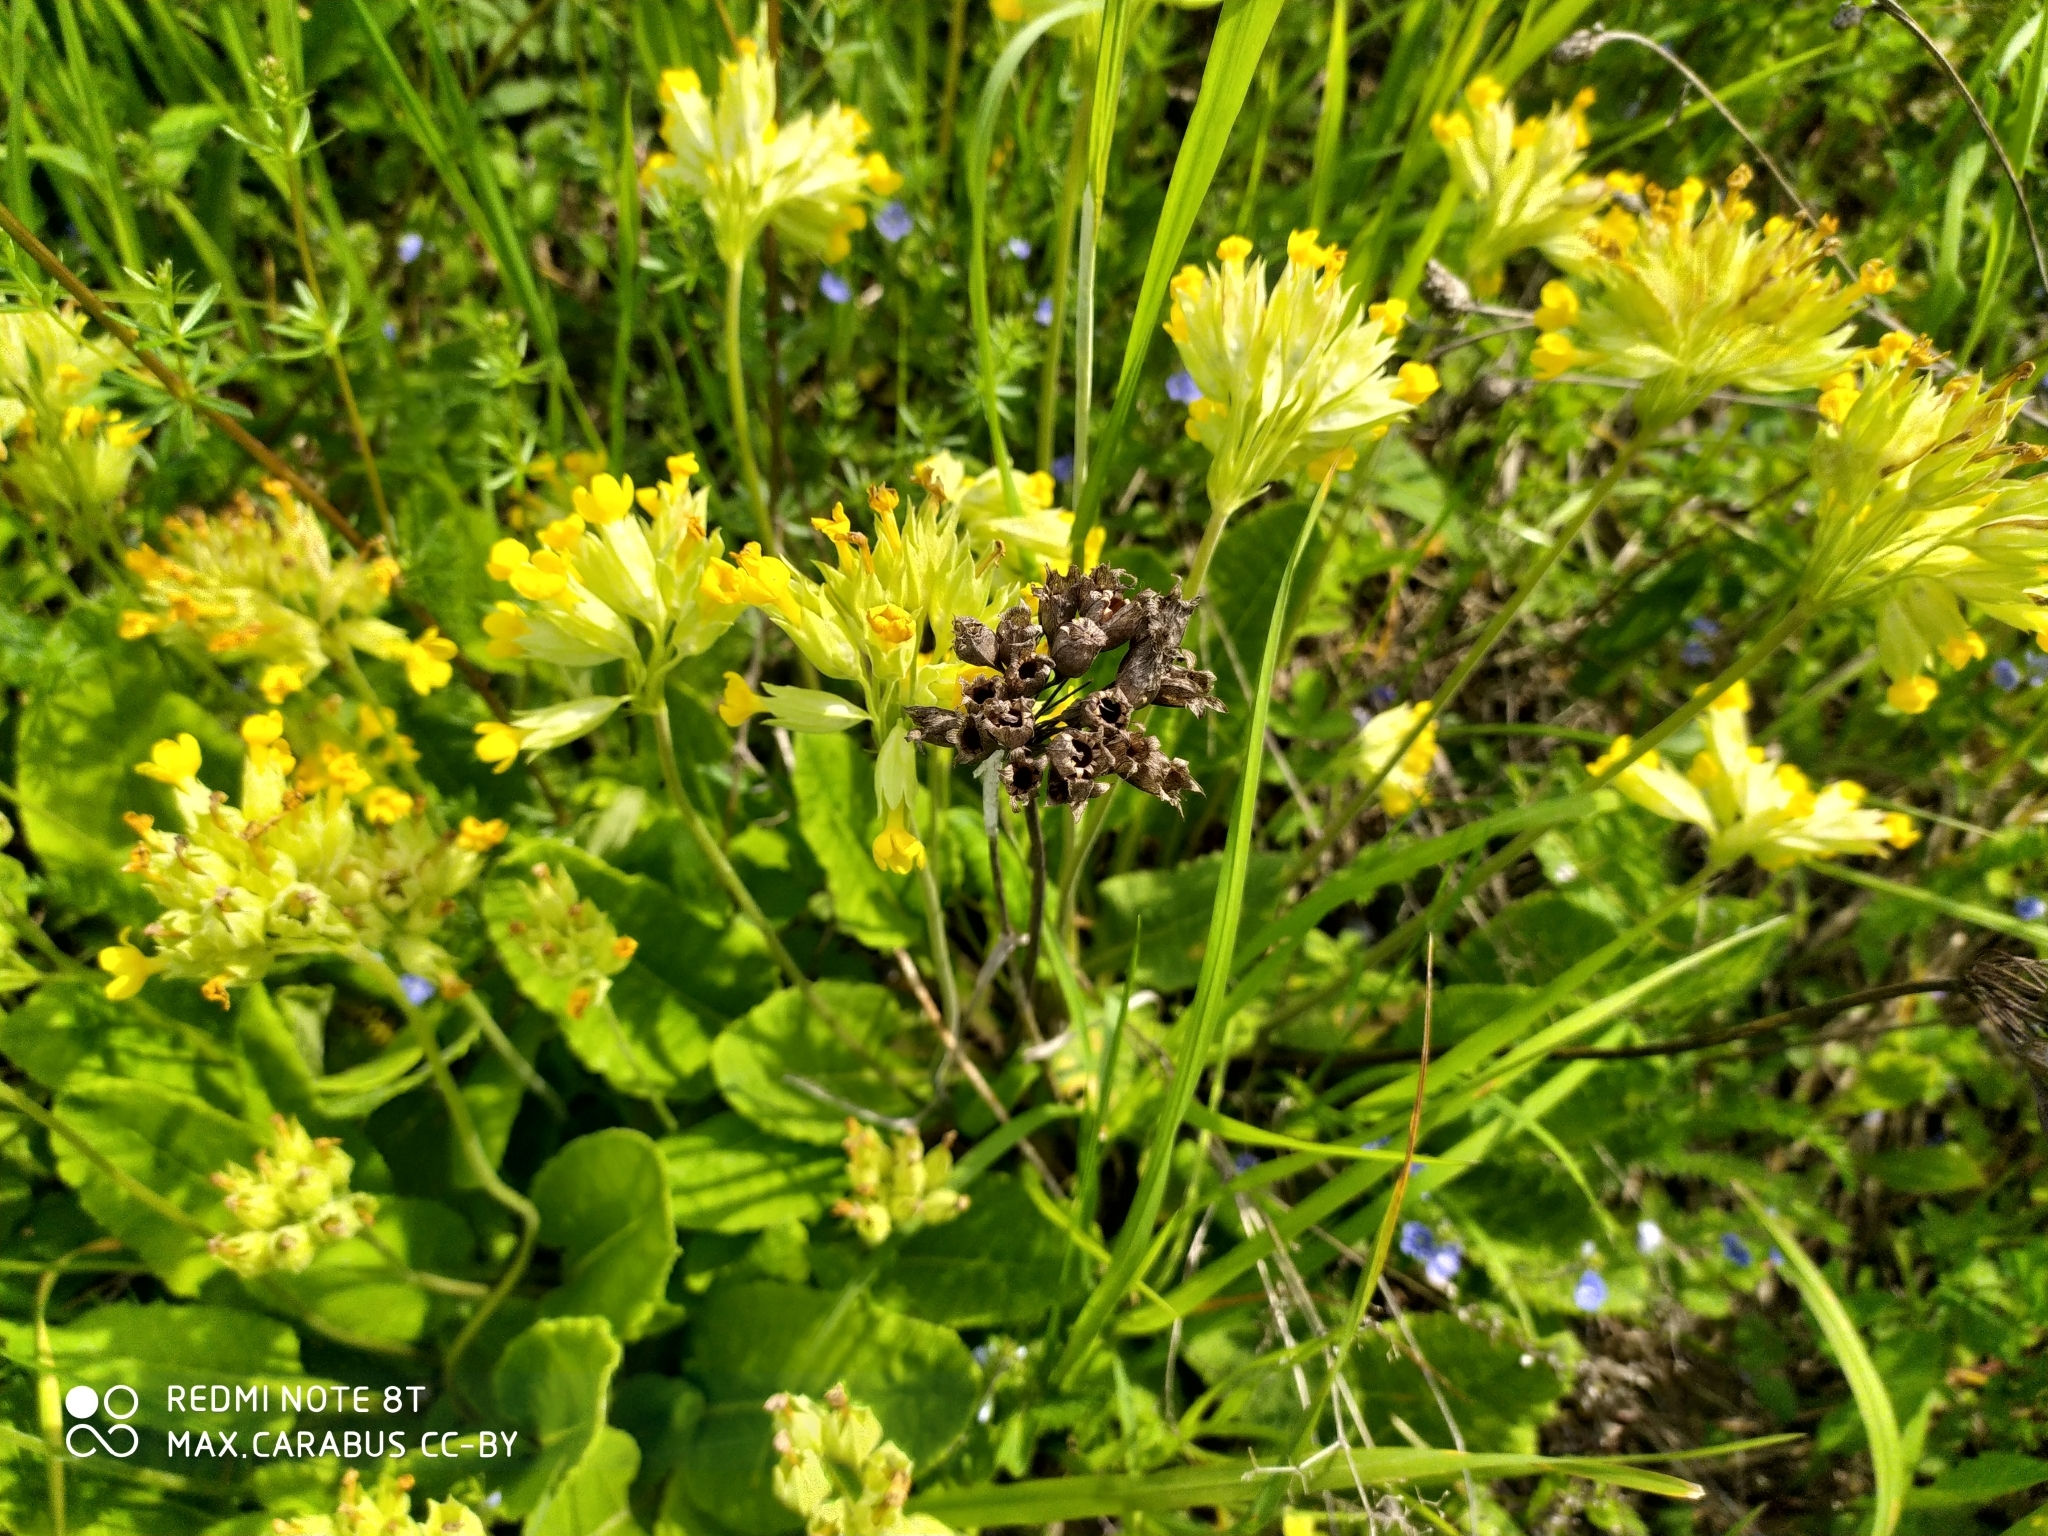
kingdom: Plantae
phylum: Tracheophyta
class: Magnoliopsida
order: Ericales
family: Primulaceae
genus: Primula
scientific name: Primula veris
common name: Cowslip
